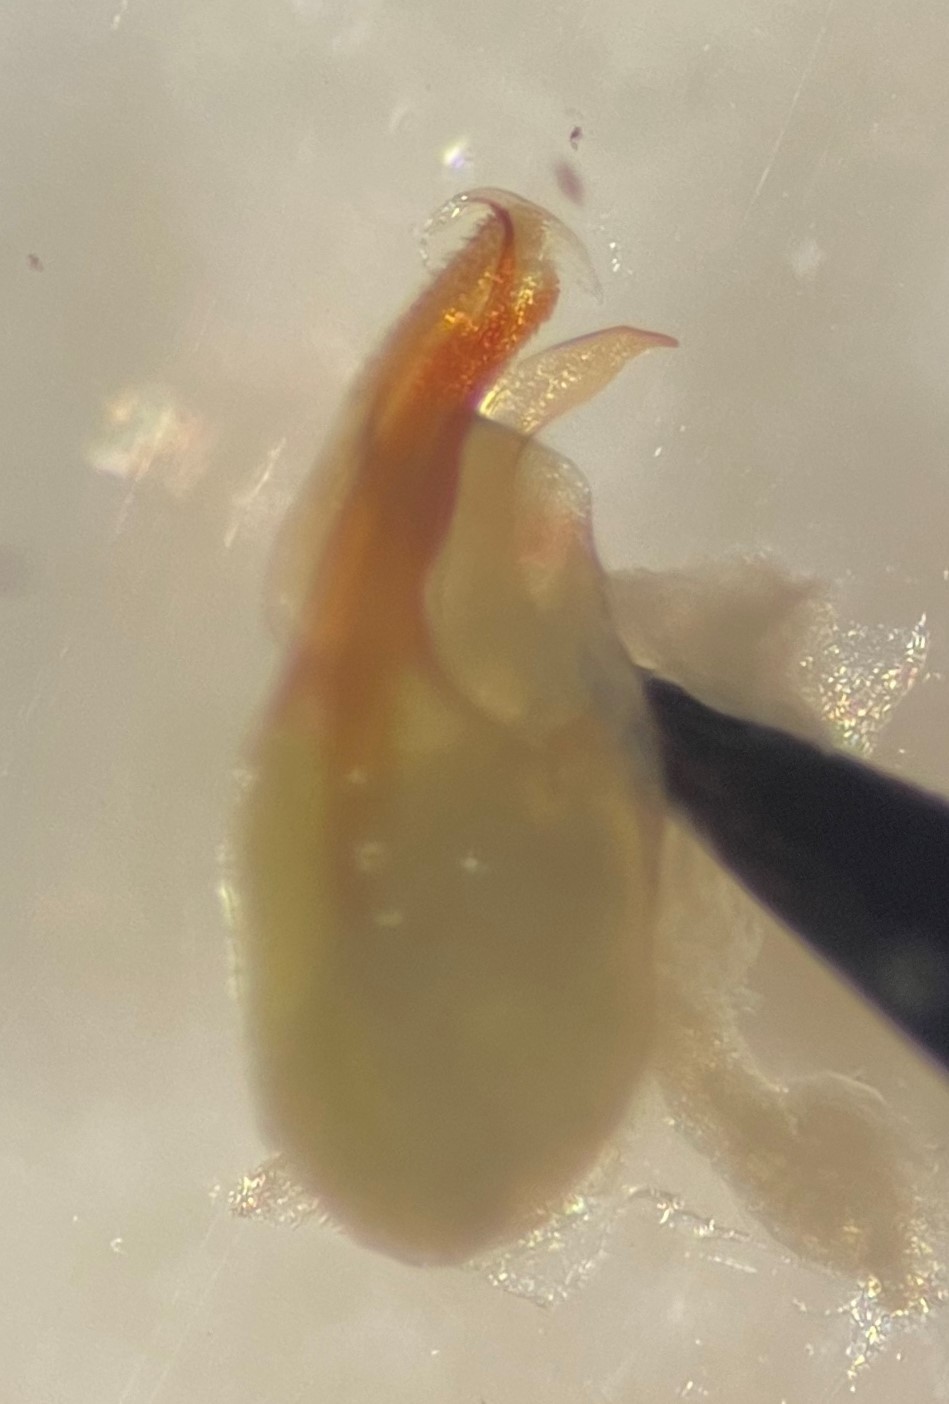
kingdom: Animalia
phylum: Arthropoda
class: Insecta
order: Hemiptera
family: Corixidae
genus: Sigara
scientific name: Sigara virginiensis
